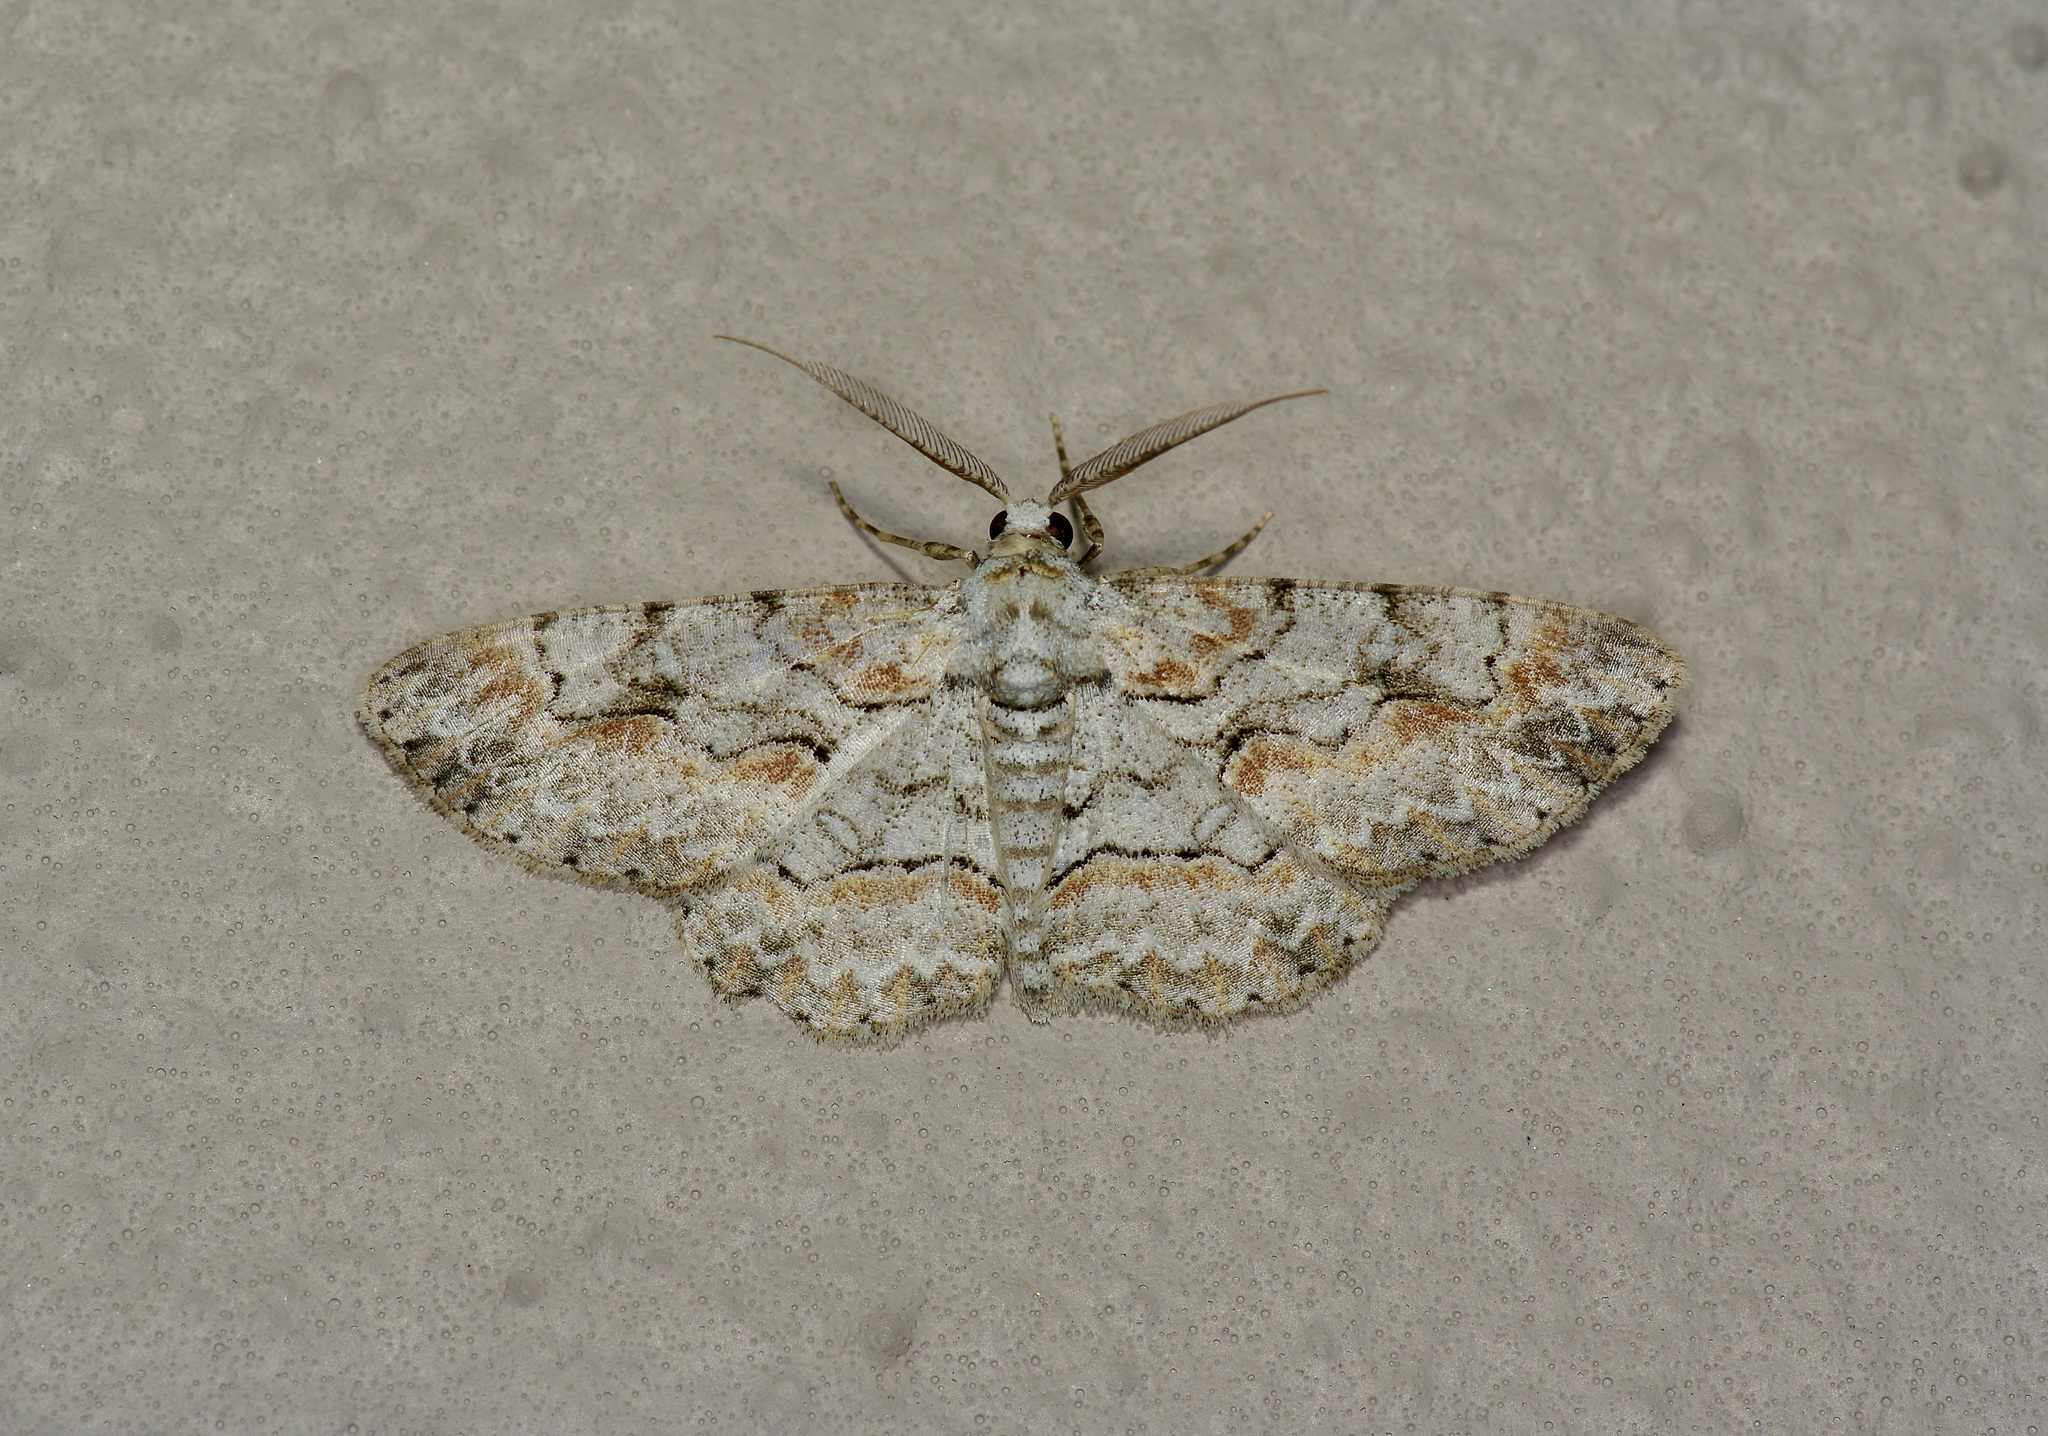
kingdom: Animalia
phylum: Arthropoda
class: Insecta
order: Lepidoptera
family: Geometridae
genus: Iridopsis
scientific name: Iridopsis defectaria
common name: Brown-shaded gray
